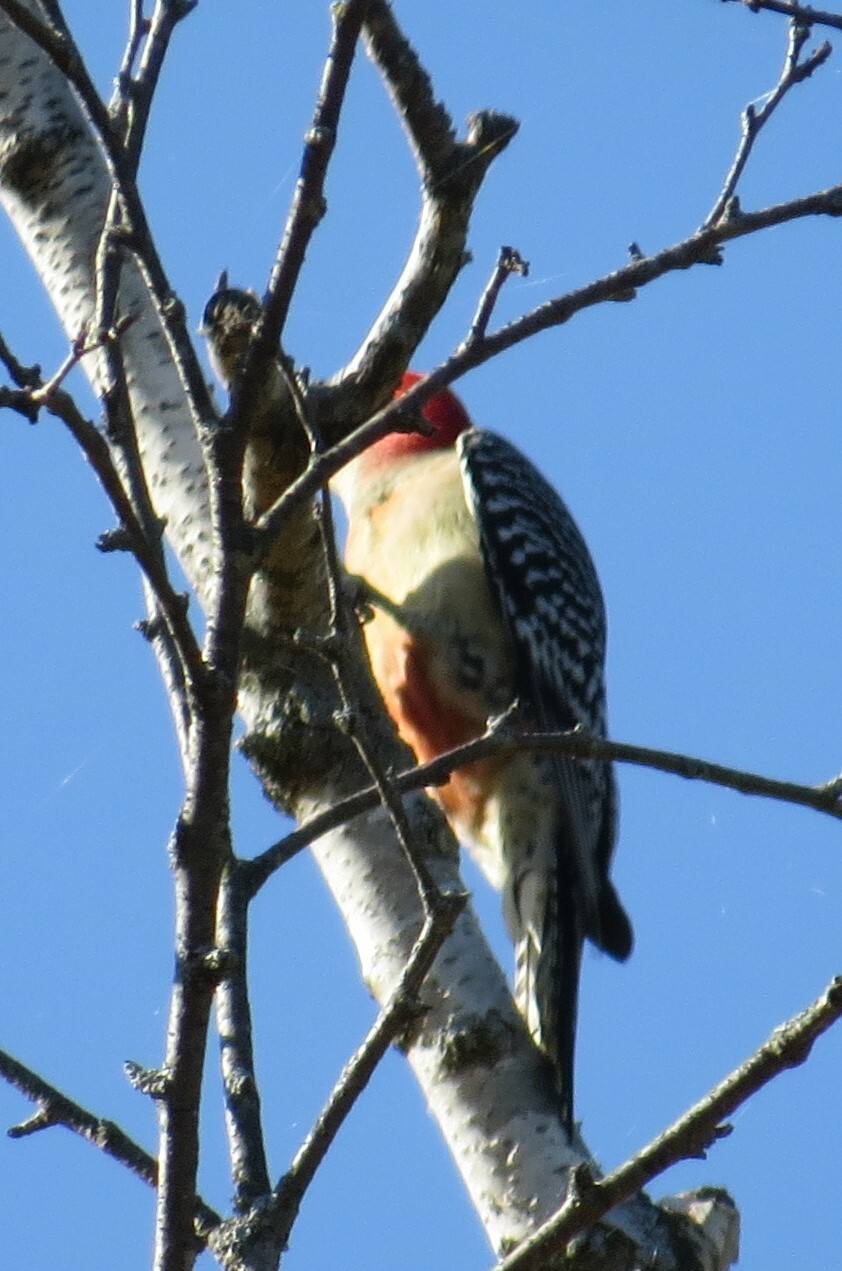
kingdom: Animalia
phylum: Chordata
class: Aves
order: Piciformes
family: Picidae
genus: Melanerpes
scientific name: Melanerpes carolinus
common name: Red-bellied woodpecker
